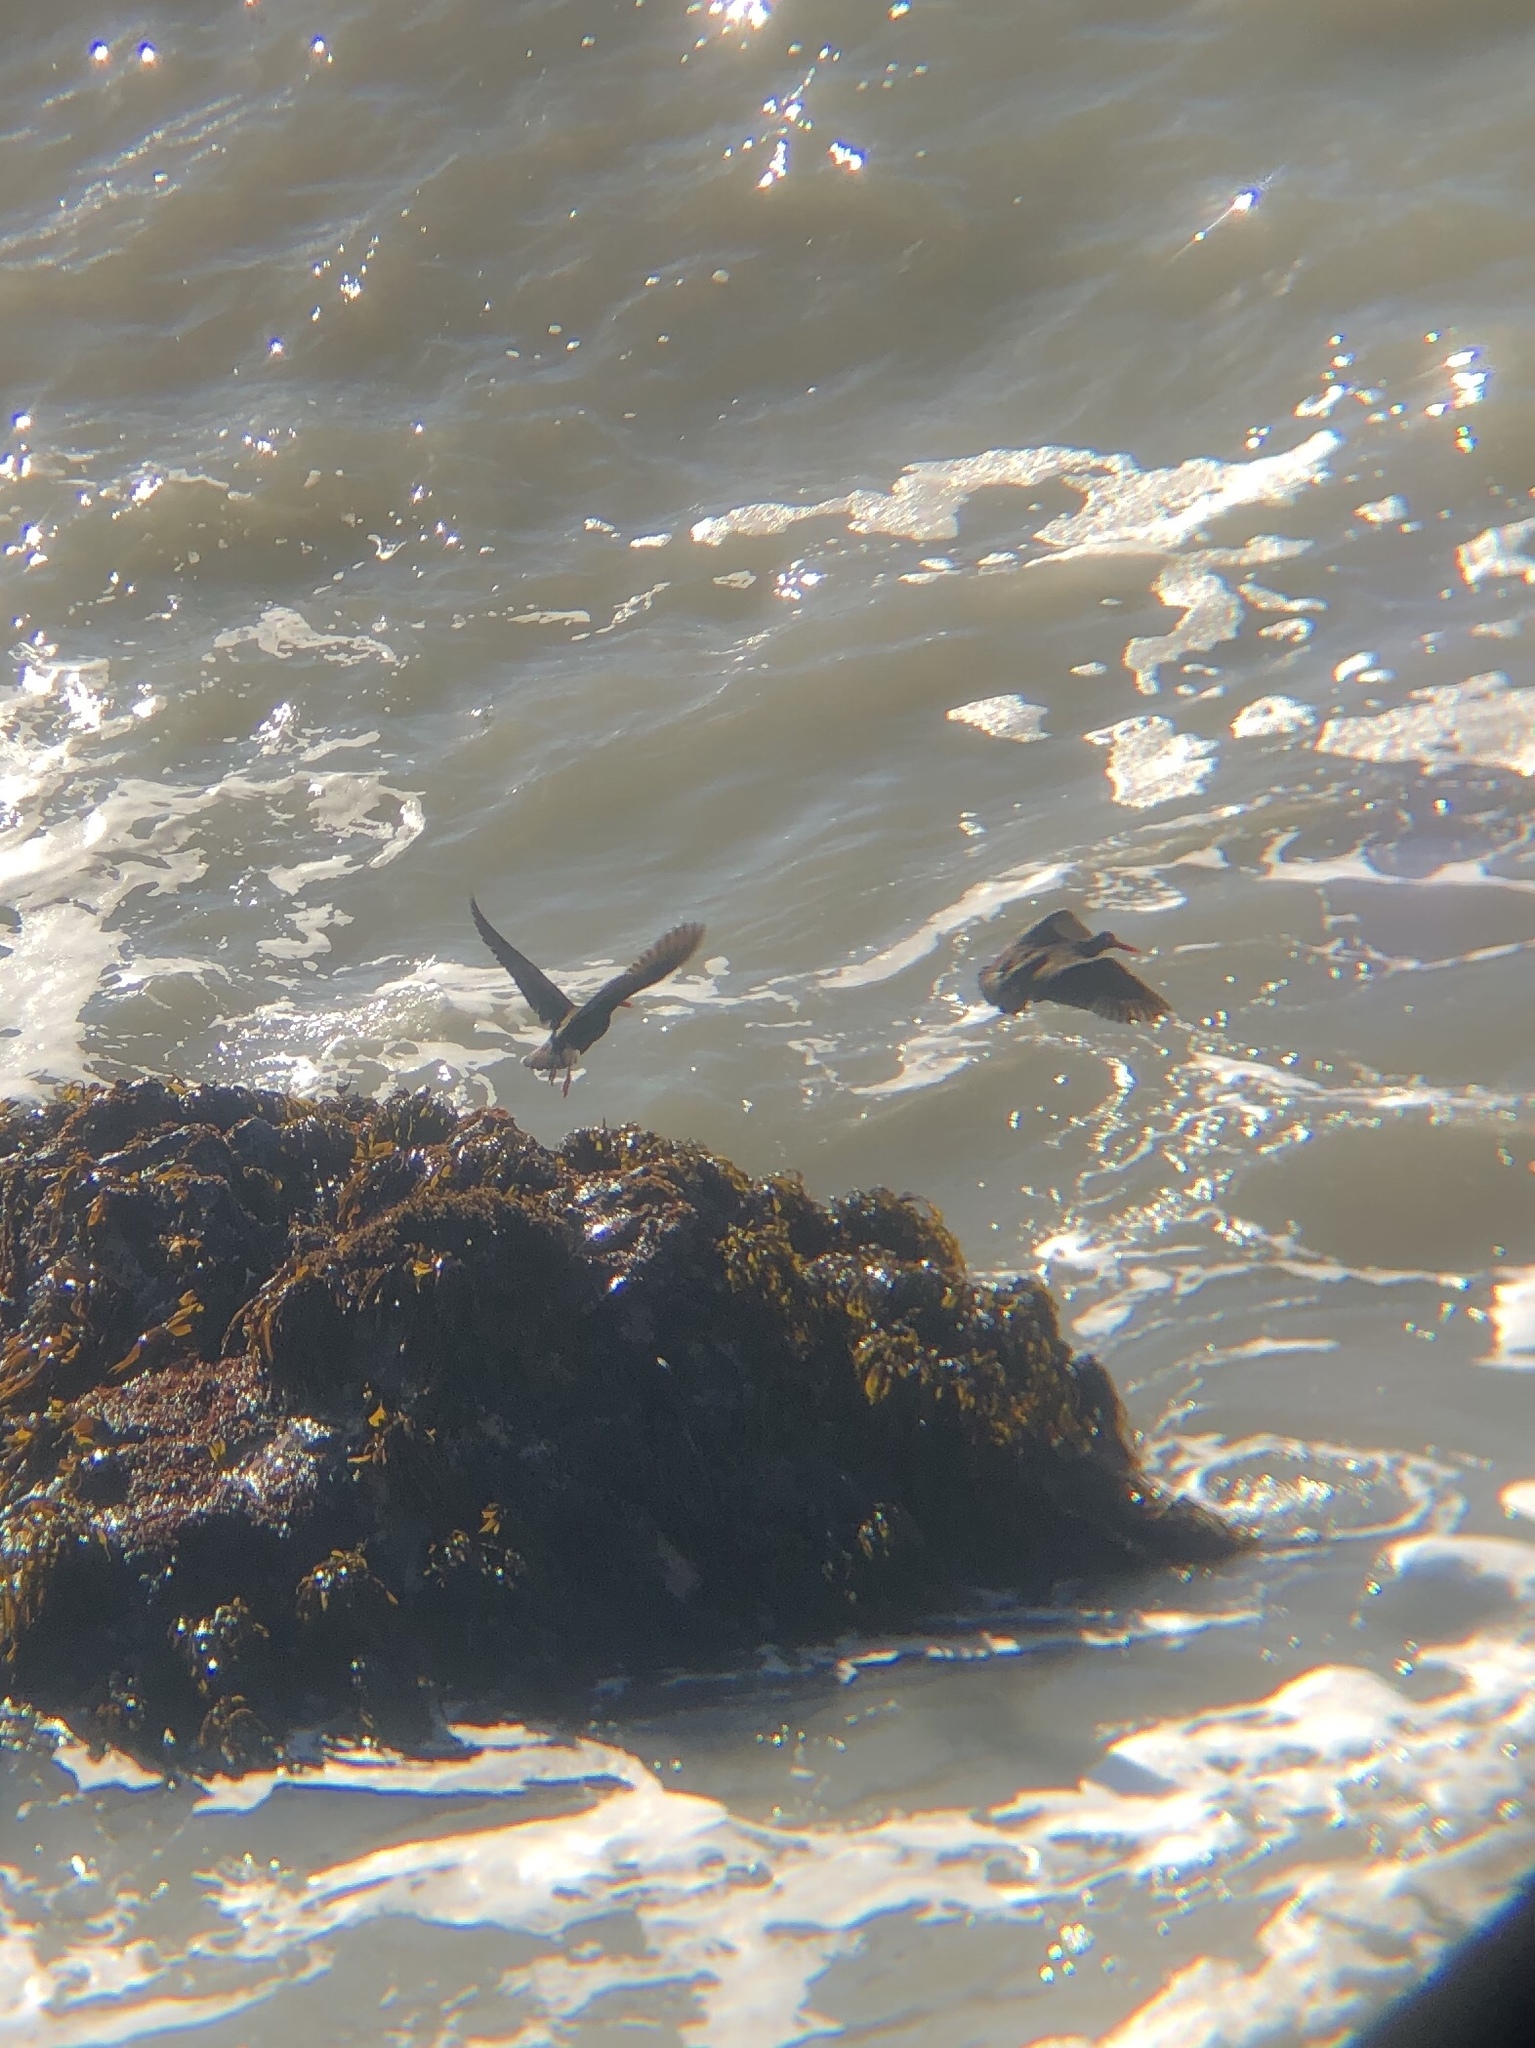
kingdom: Animalia
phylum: Chordata
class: Aves
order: Charadriiformes
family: Haematopodidae
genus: Haematopus
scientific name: Haematopus bachmani
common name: Black oystercatcher
